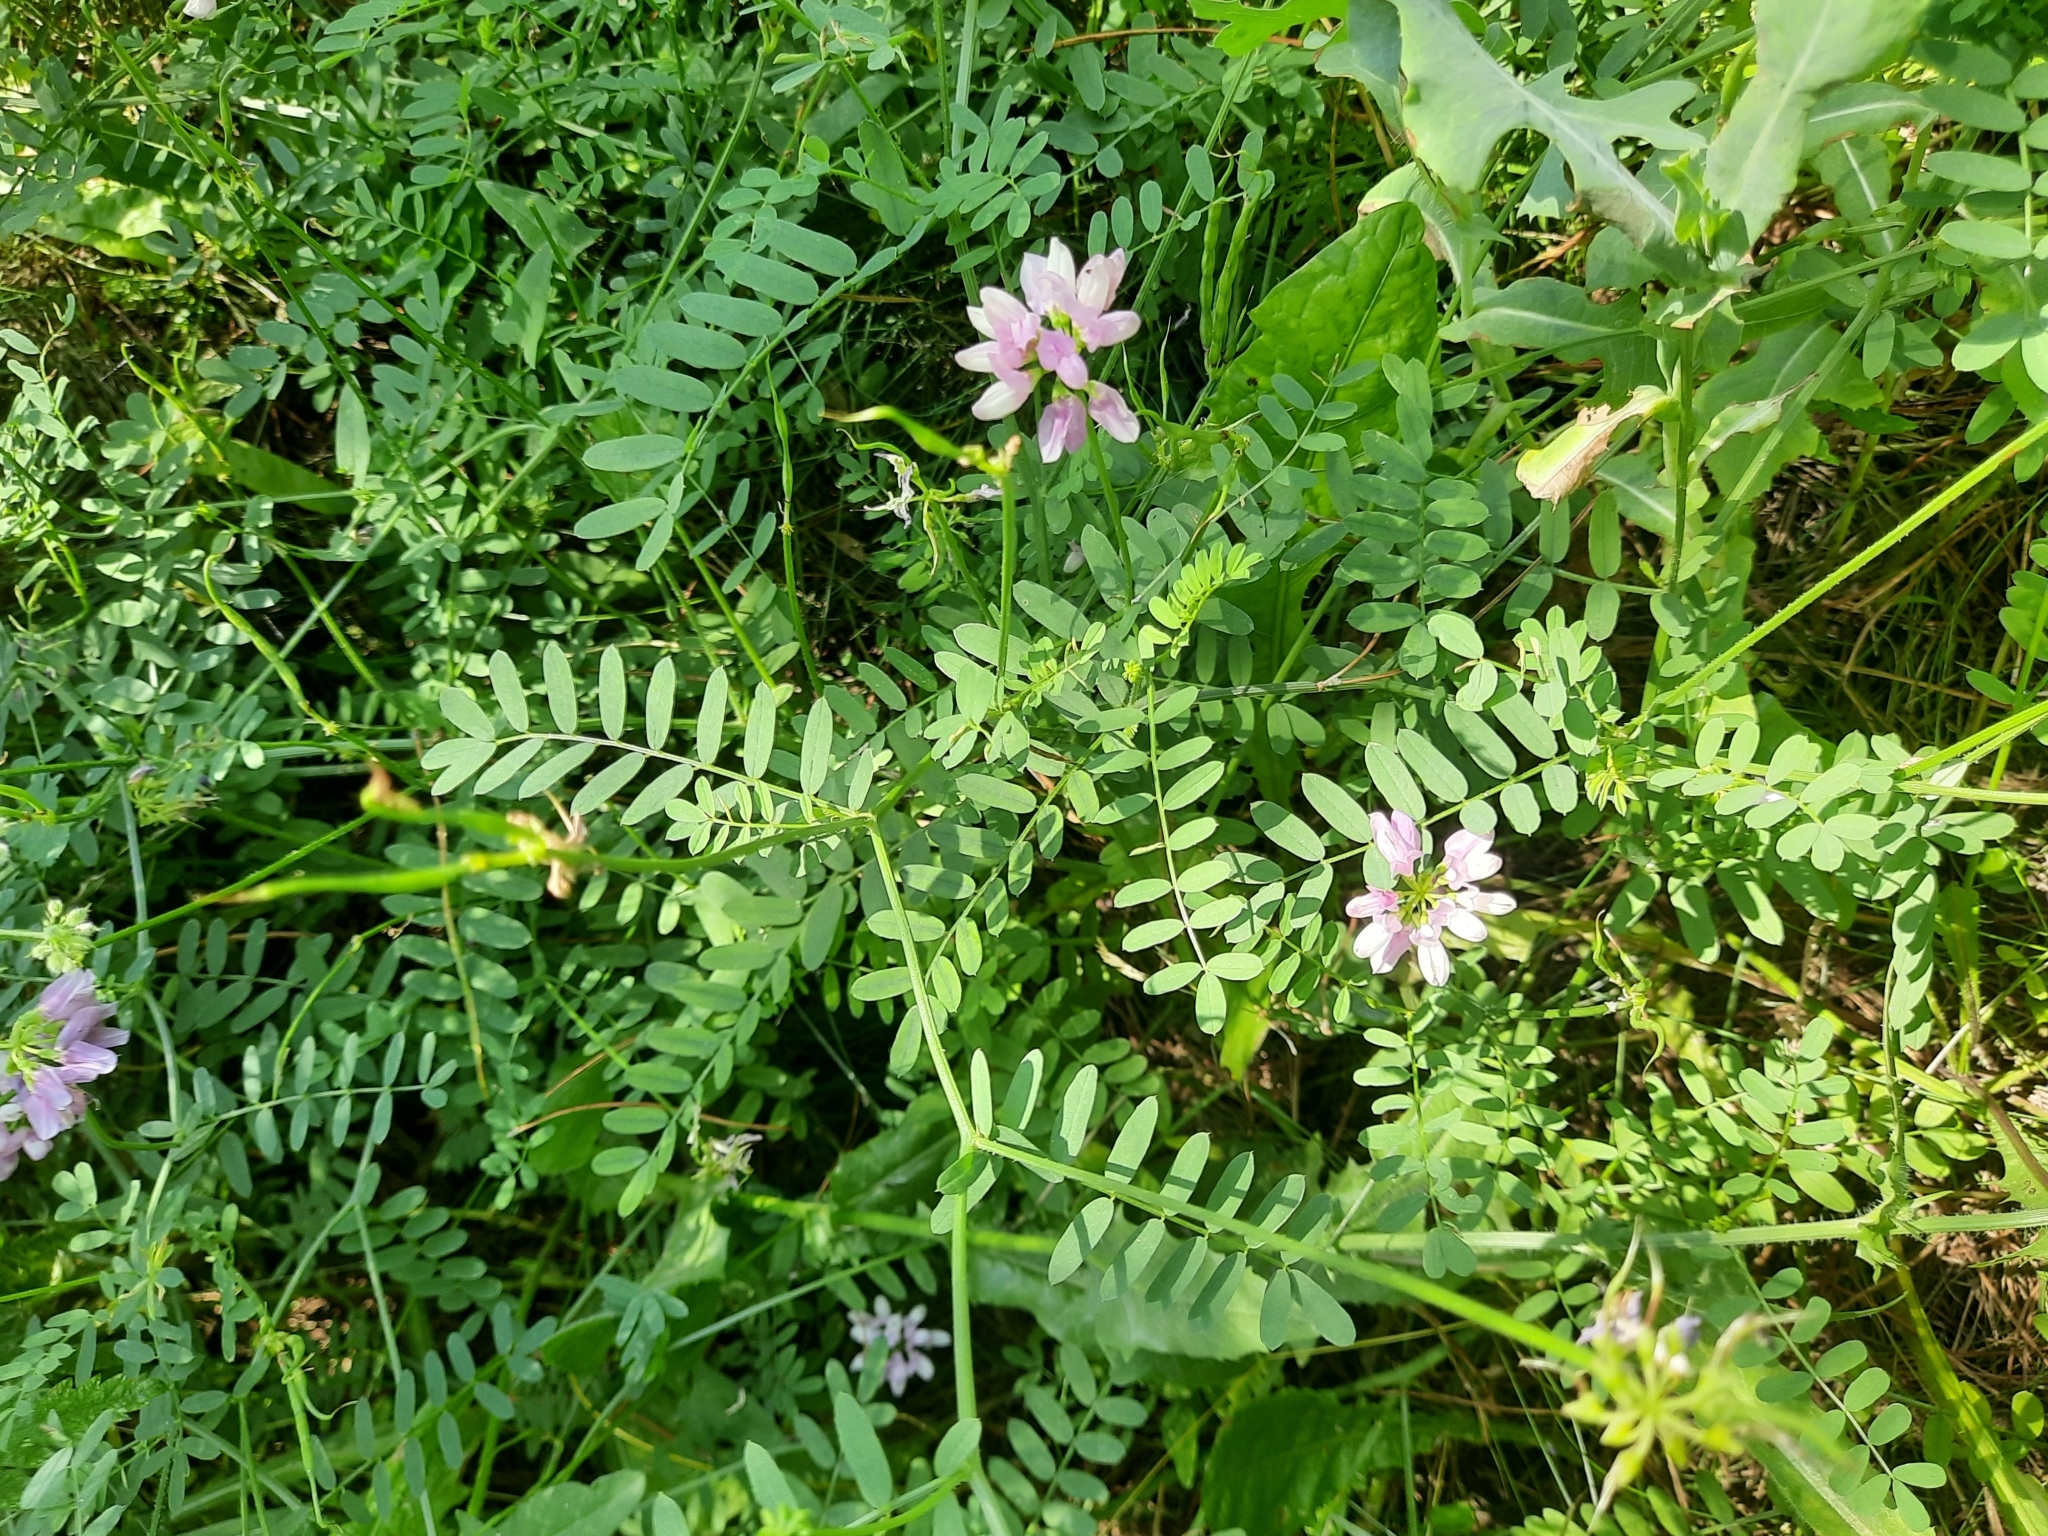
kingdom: Plantae
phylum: Tracheophyta
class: Magnoliopsida
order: Fabales
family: Fabaceae
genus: Coronilla
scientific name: Coronilla varia
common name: Crownvetch
